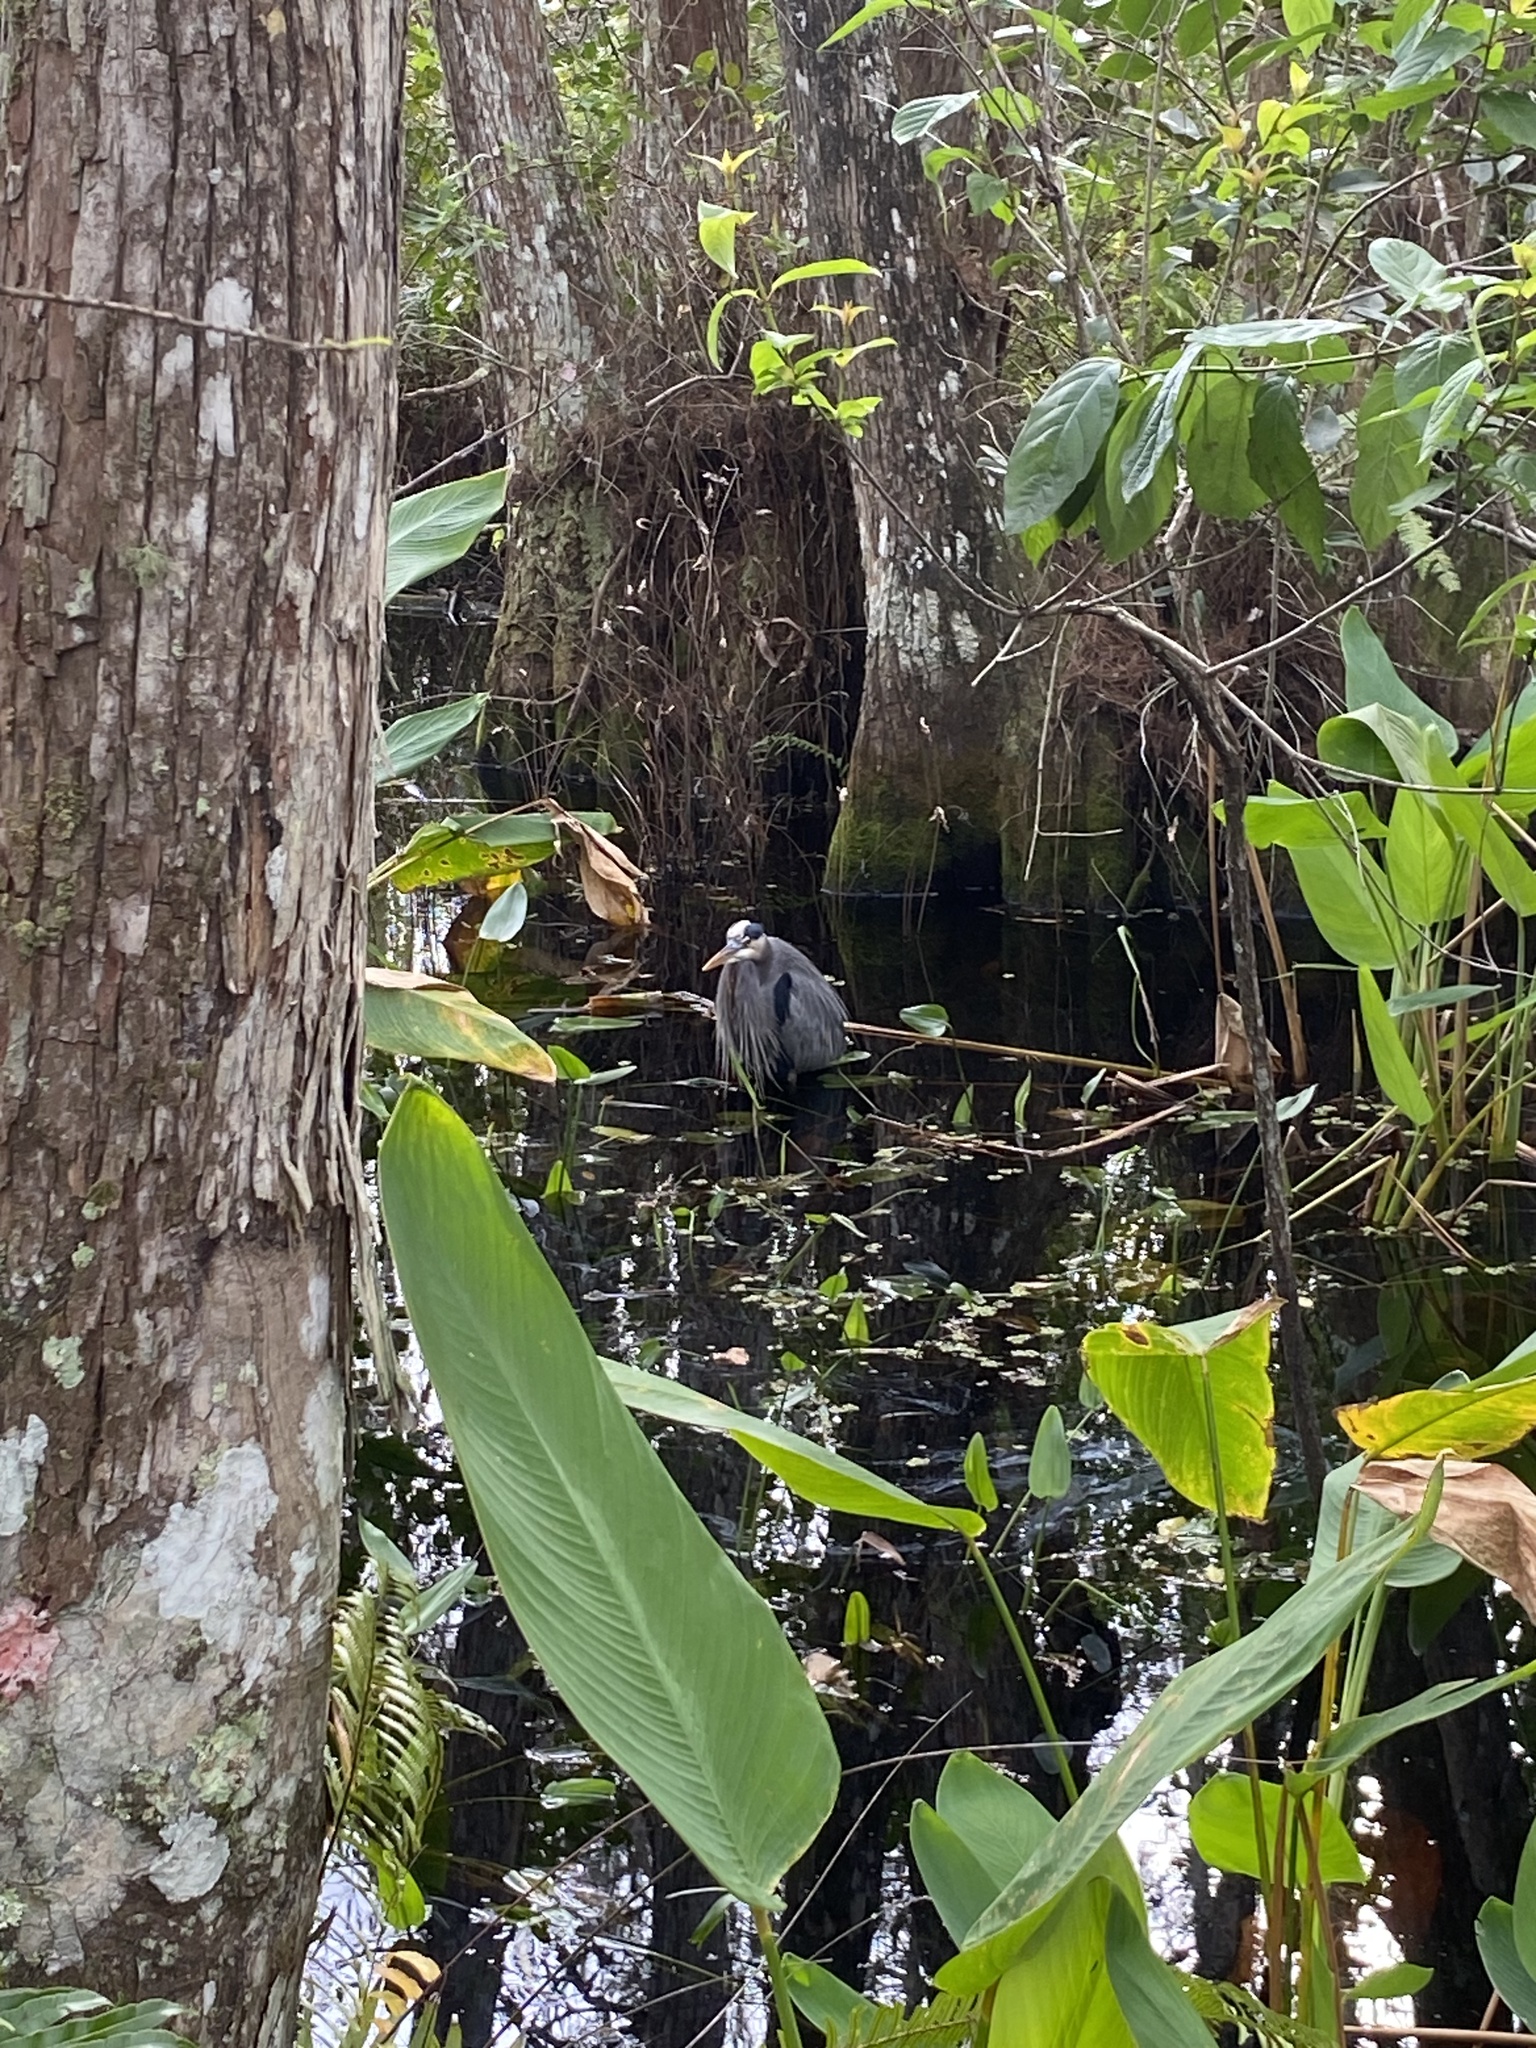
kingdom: Animalia
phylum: Chordata
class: Aves
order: Pelecaniformes
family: Ardeidae
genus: Ardea
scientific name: Ardea herodias
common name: Great blue heron
